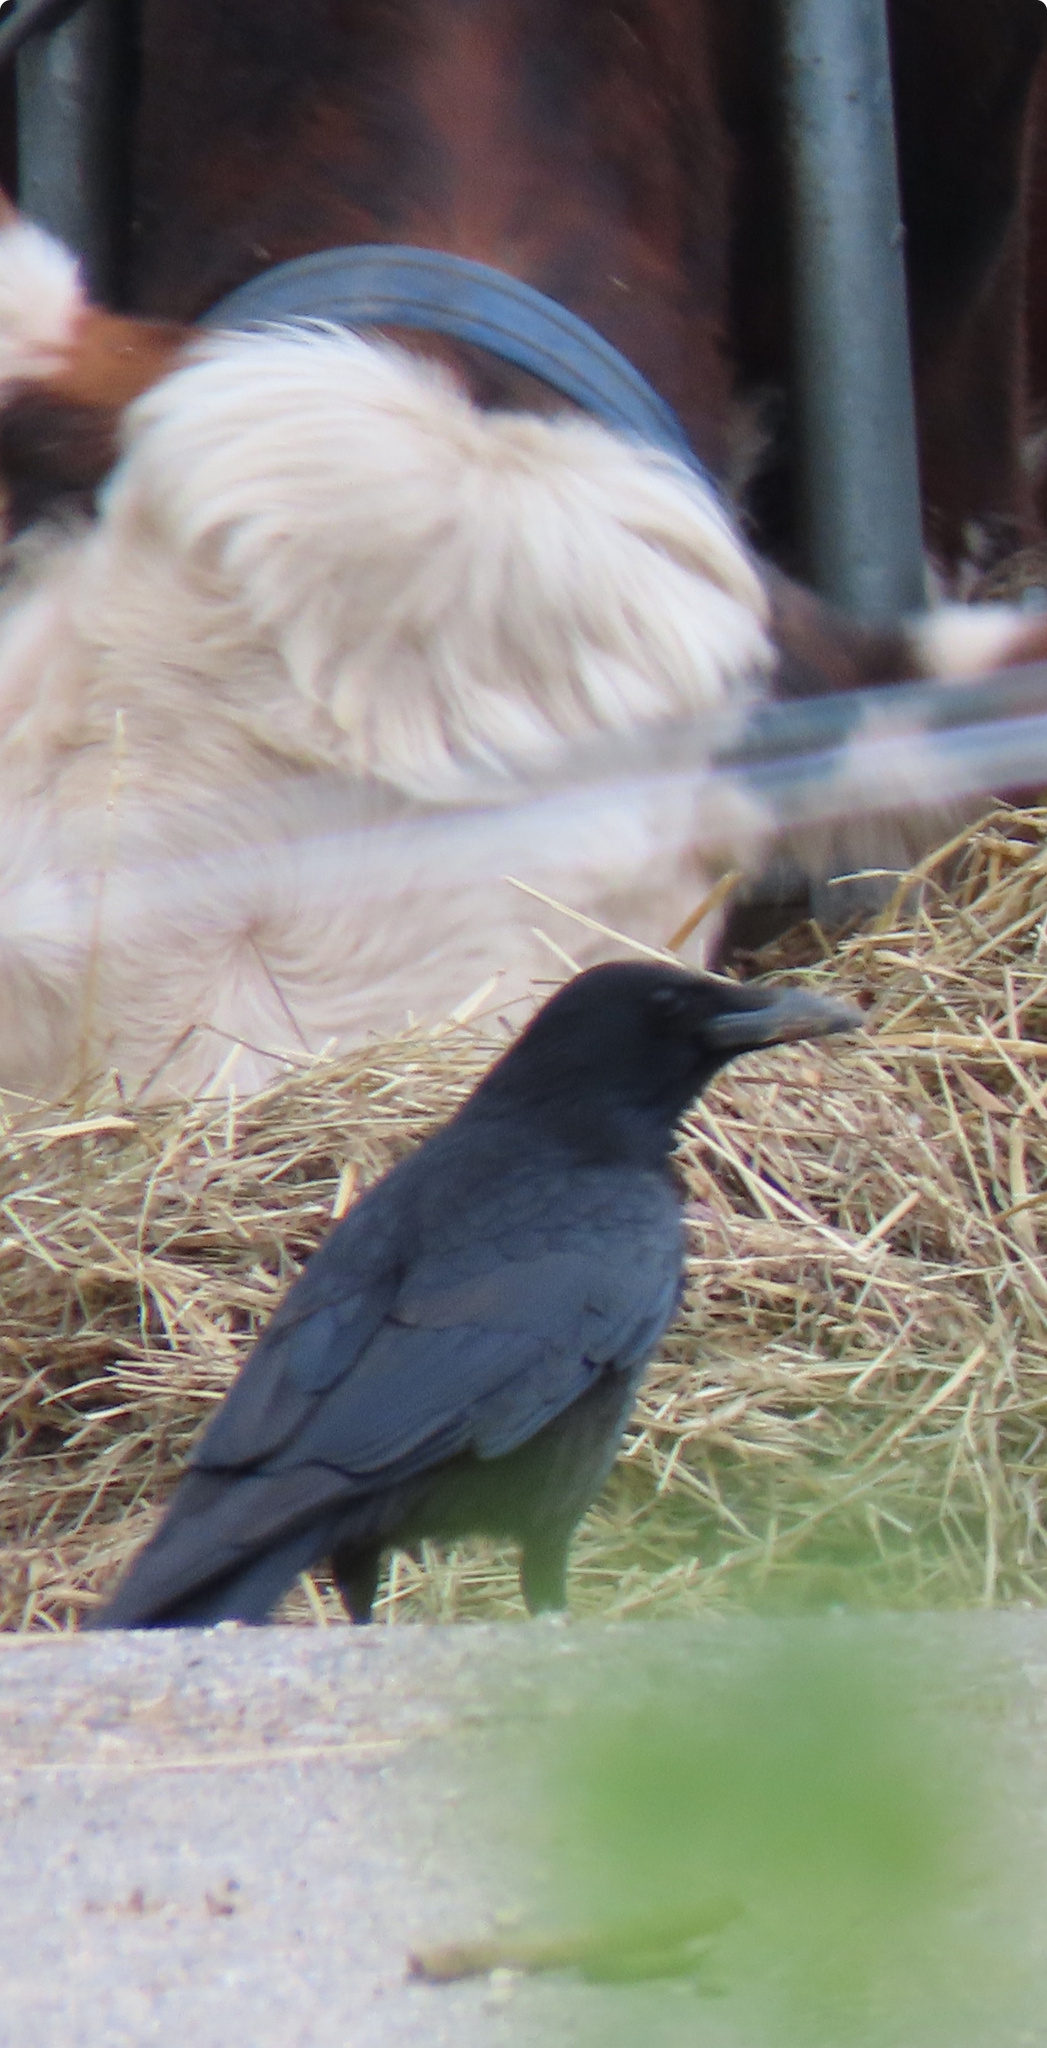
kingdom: Animalia
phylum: Chordata
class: Aves
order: Passeriformes
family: Corvidae
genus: Corvus
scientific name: Corvus corone
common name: Carrion crow
